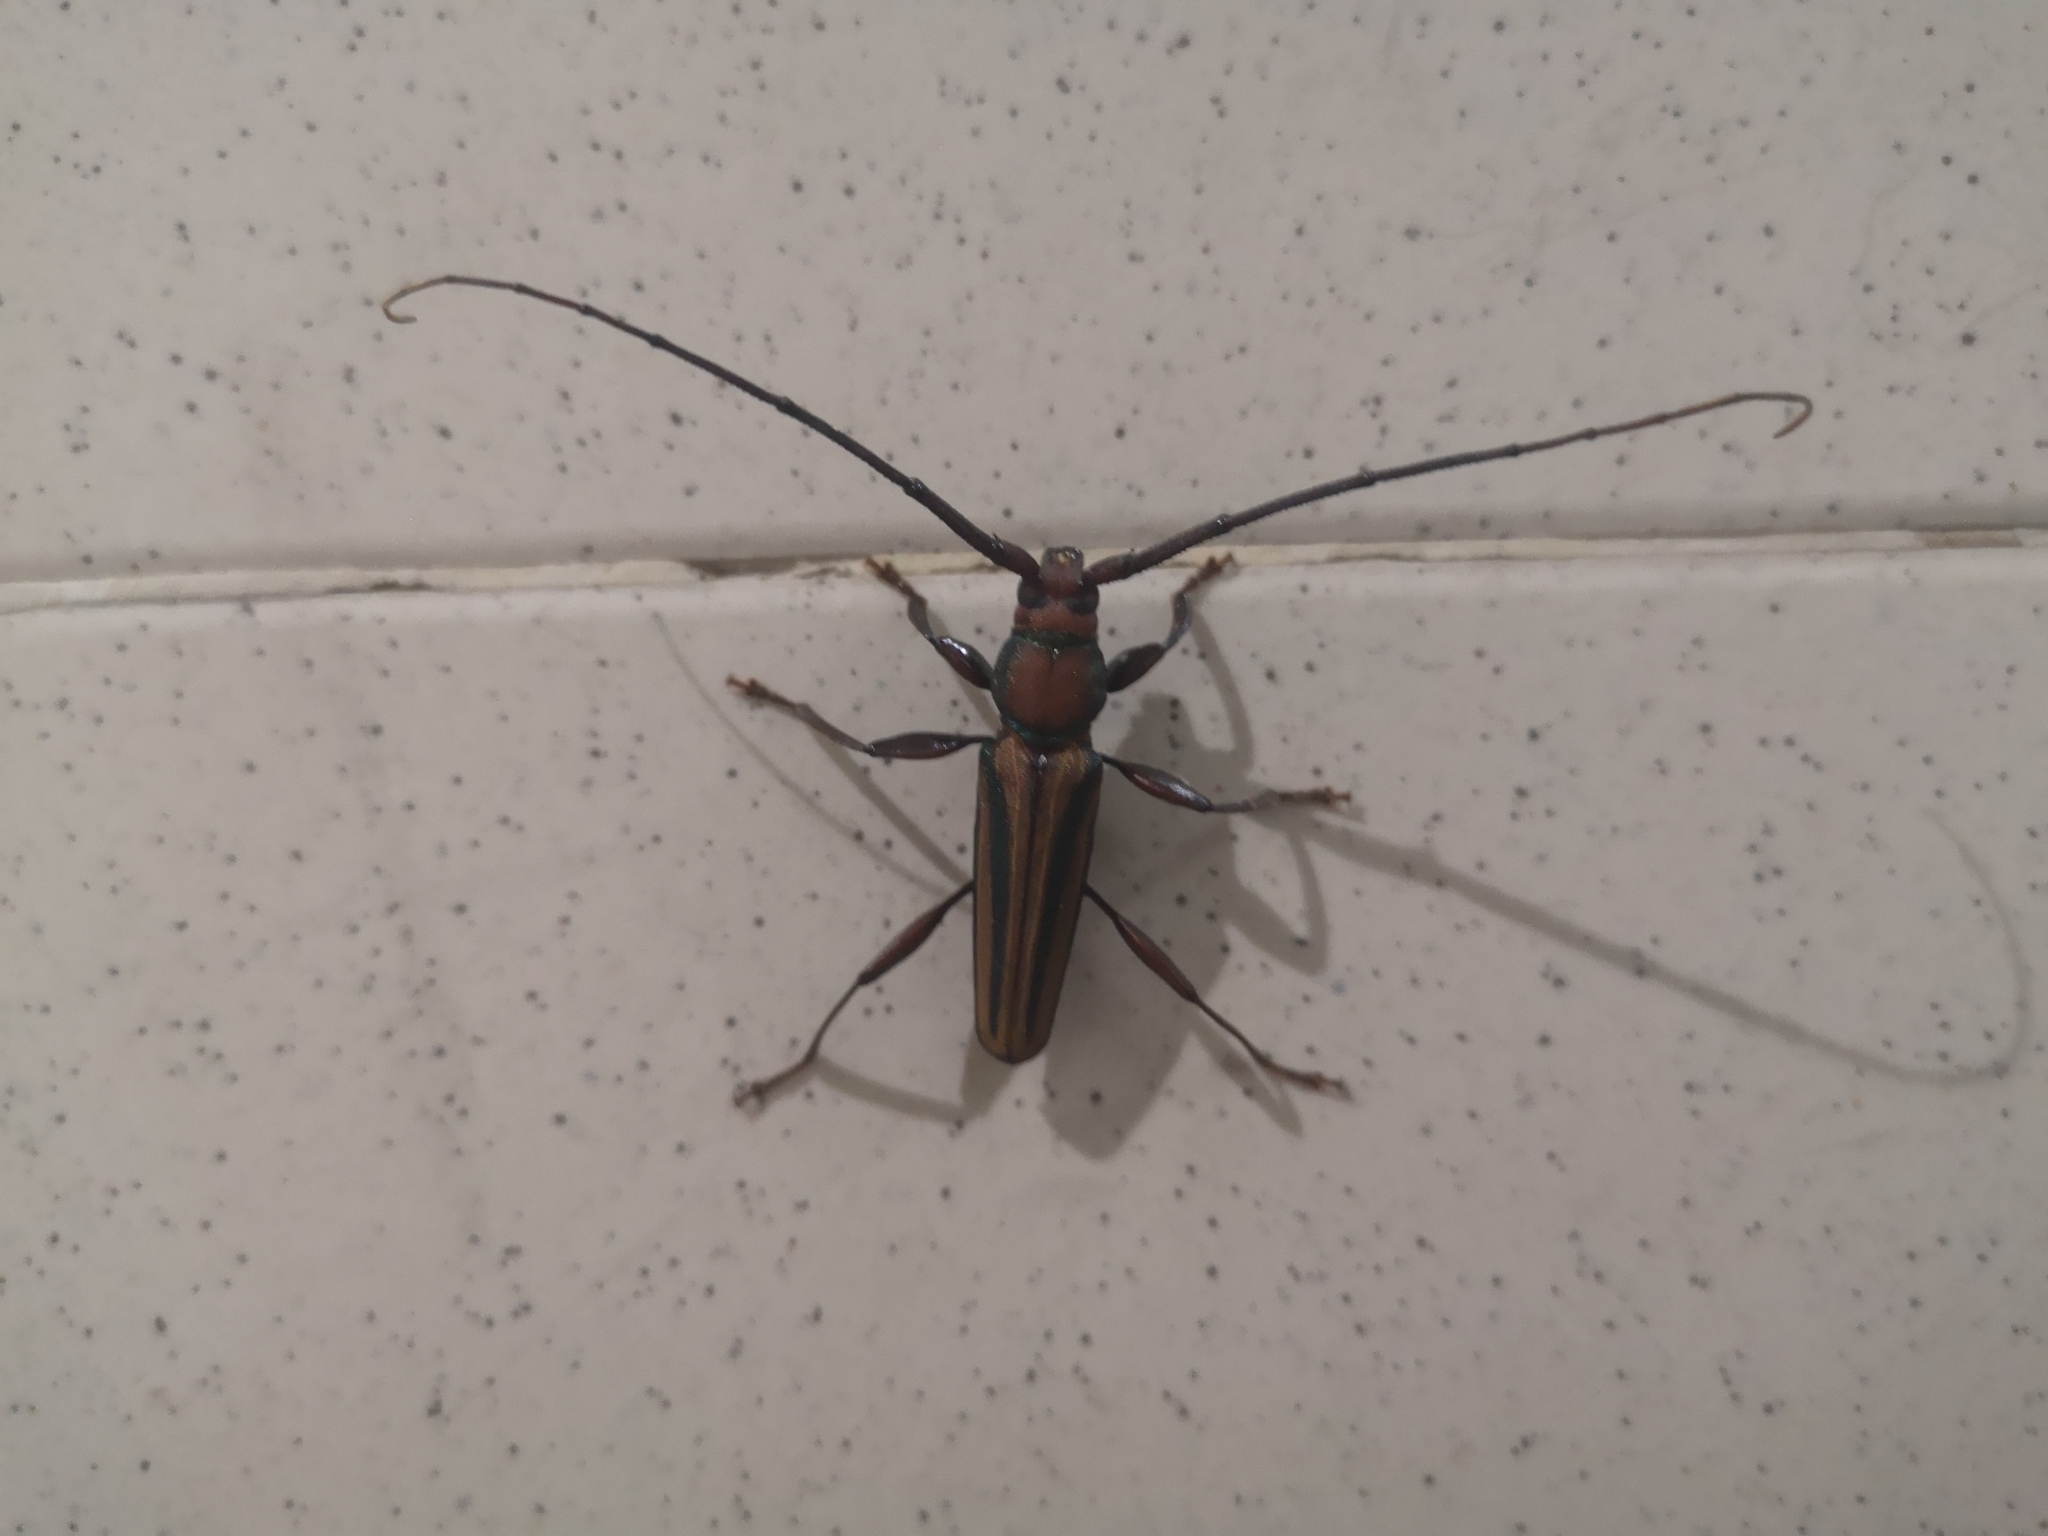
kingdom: Animalia
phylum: Arthropoda
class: Insecta
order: Coleoptera
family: Cerambycidae
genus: Xystrocera
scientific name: Xystrocera globosa
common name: Peach-tree longhorn
